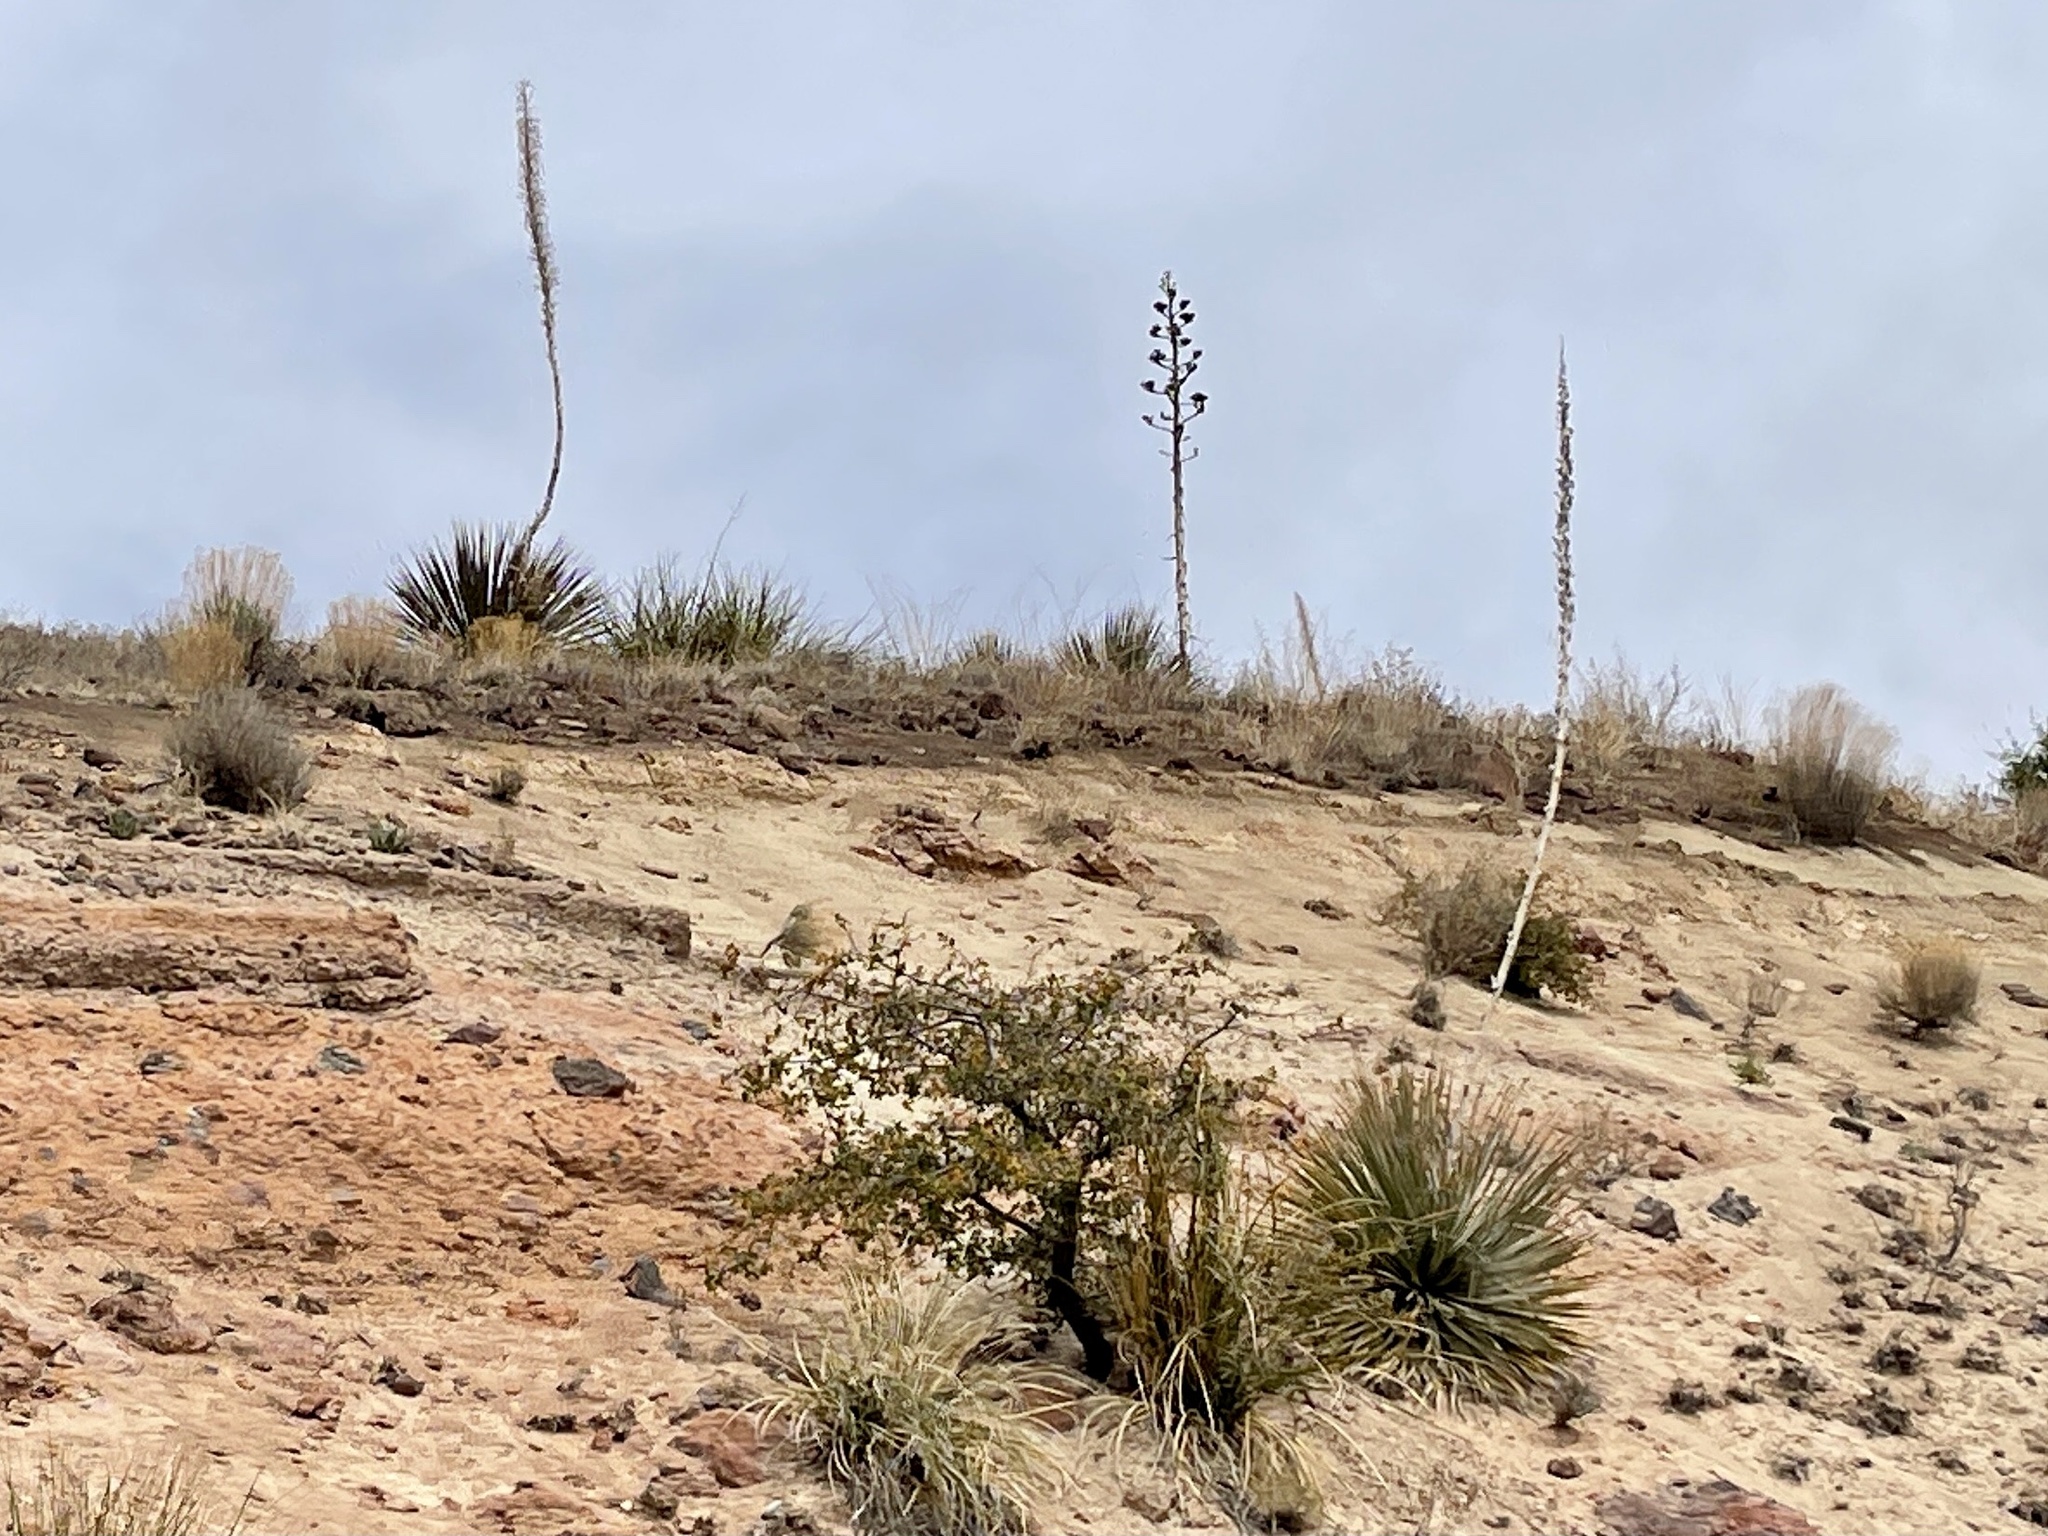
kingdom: Plantae
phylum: Tracheophyta
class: Liliopsida
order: Asparagales
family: Asparagaceae
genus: Dasylirion
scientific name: Dasylirion wheeleri
